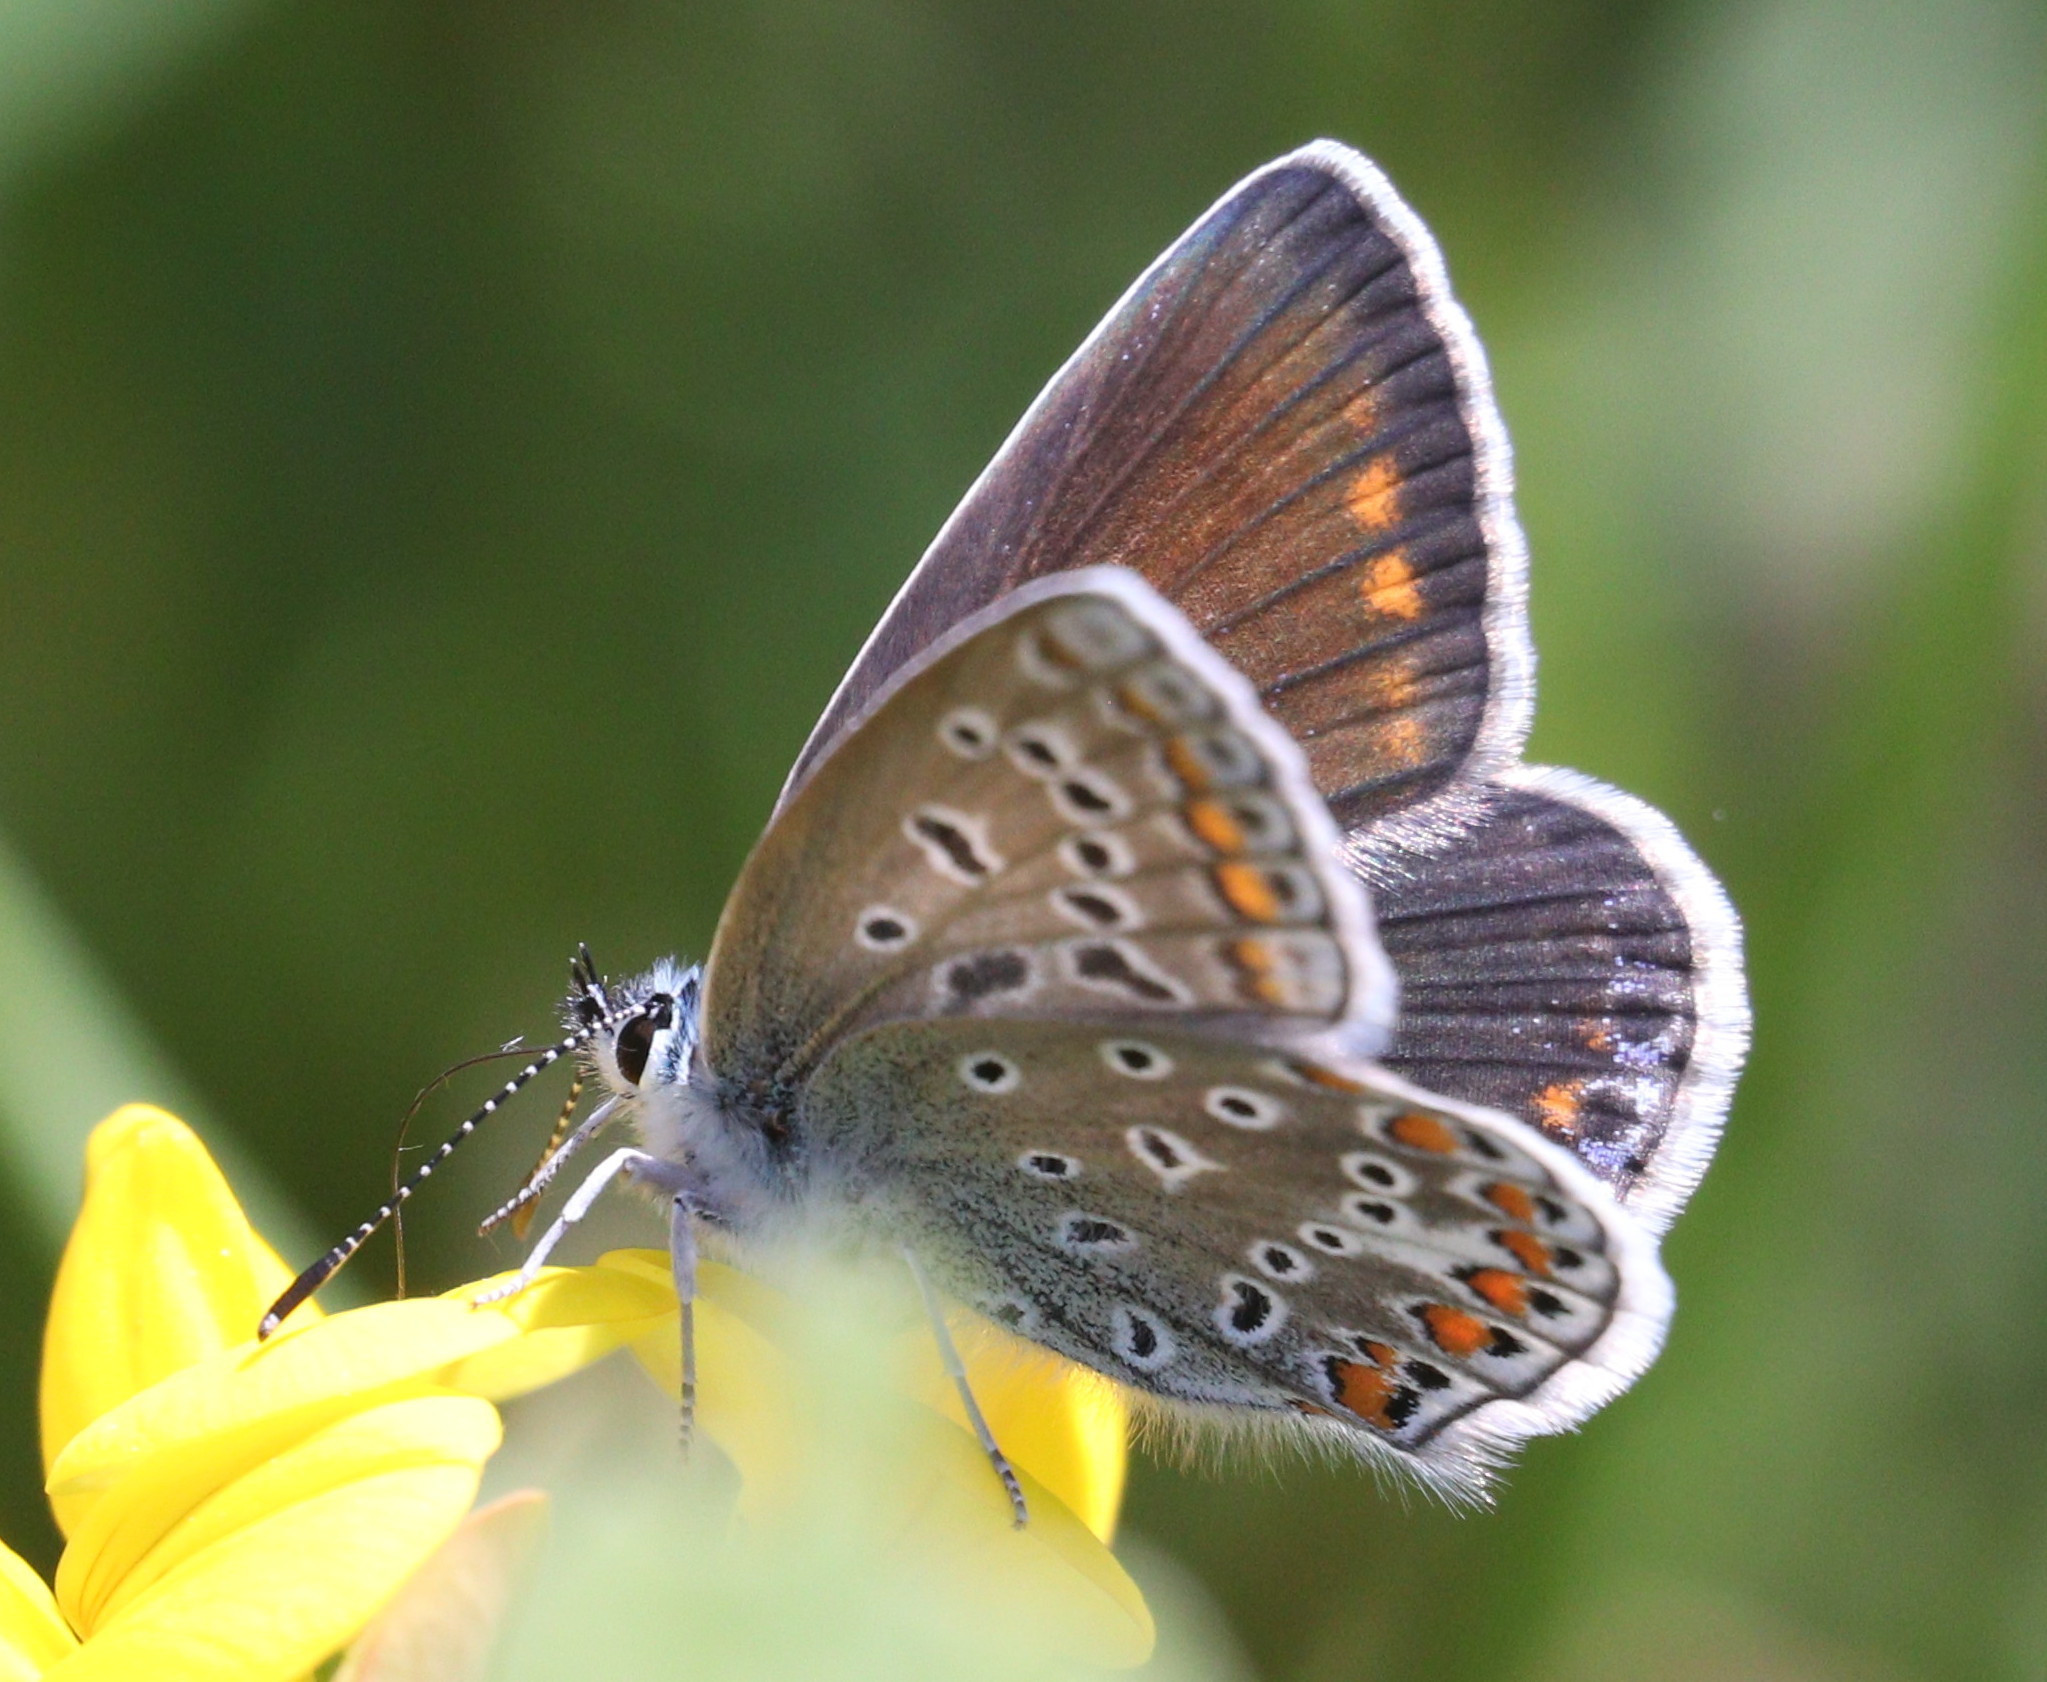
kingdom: Animalia
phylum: Arthropoda
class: Insecta
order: Lepidoptera
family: Lycaenidae
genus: Polyommatus
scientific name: Polyommatus icarus
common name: Common blue
